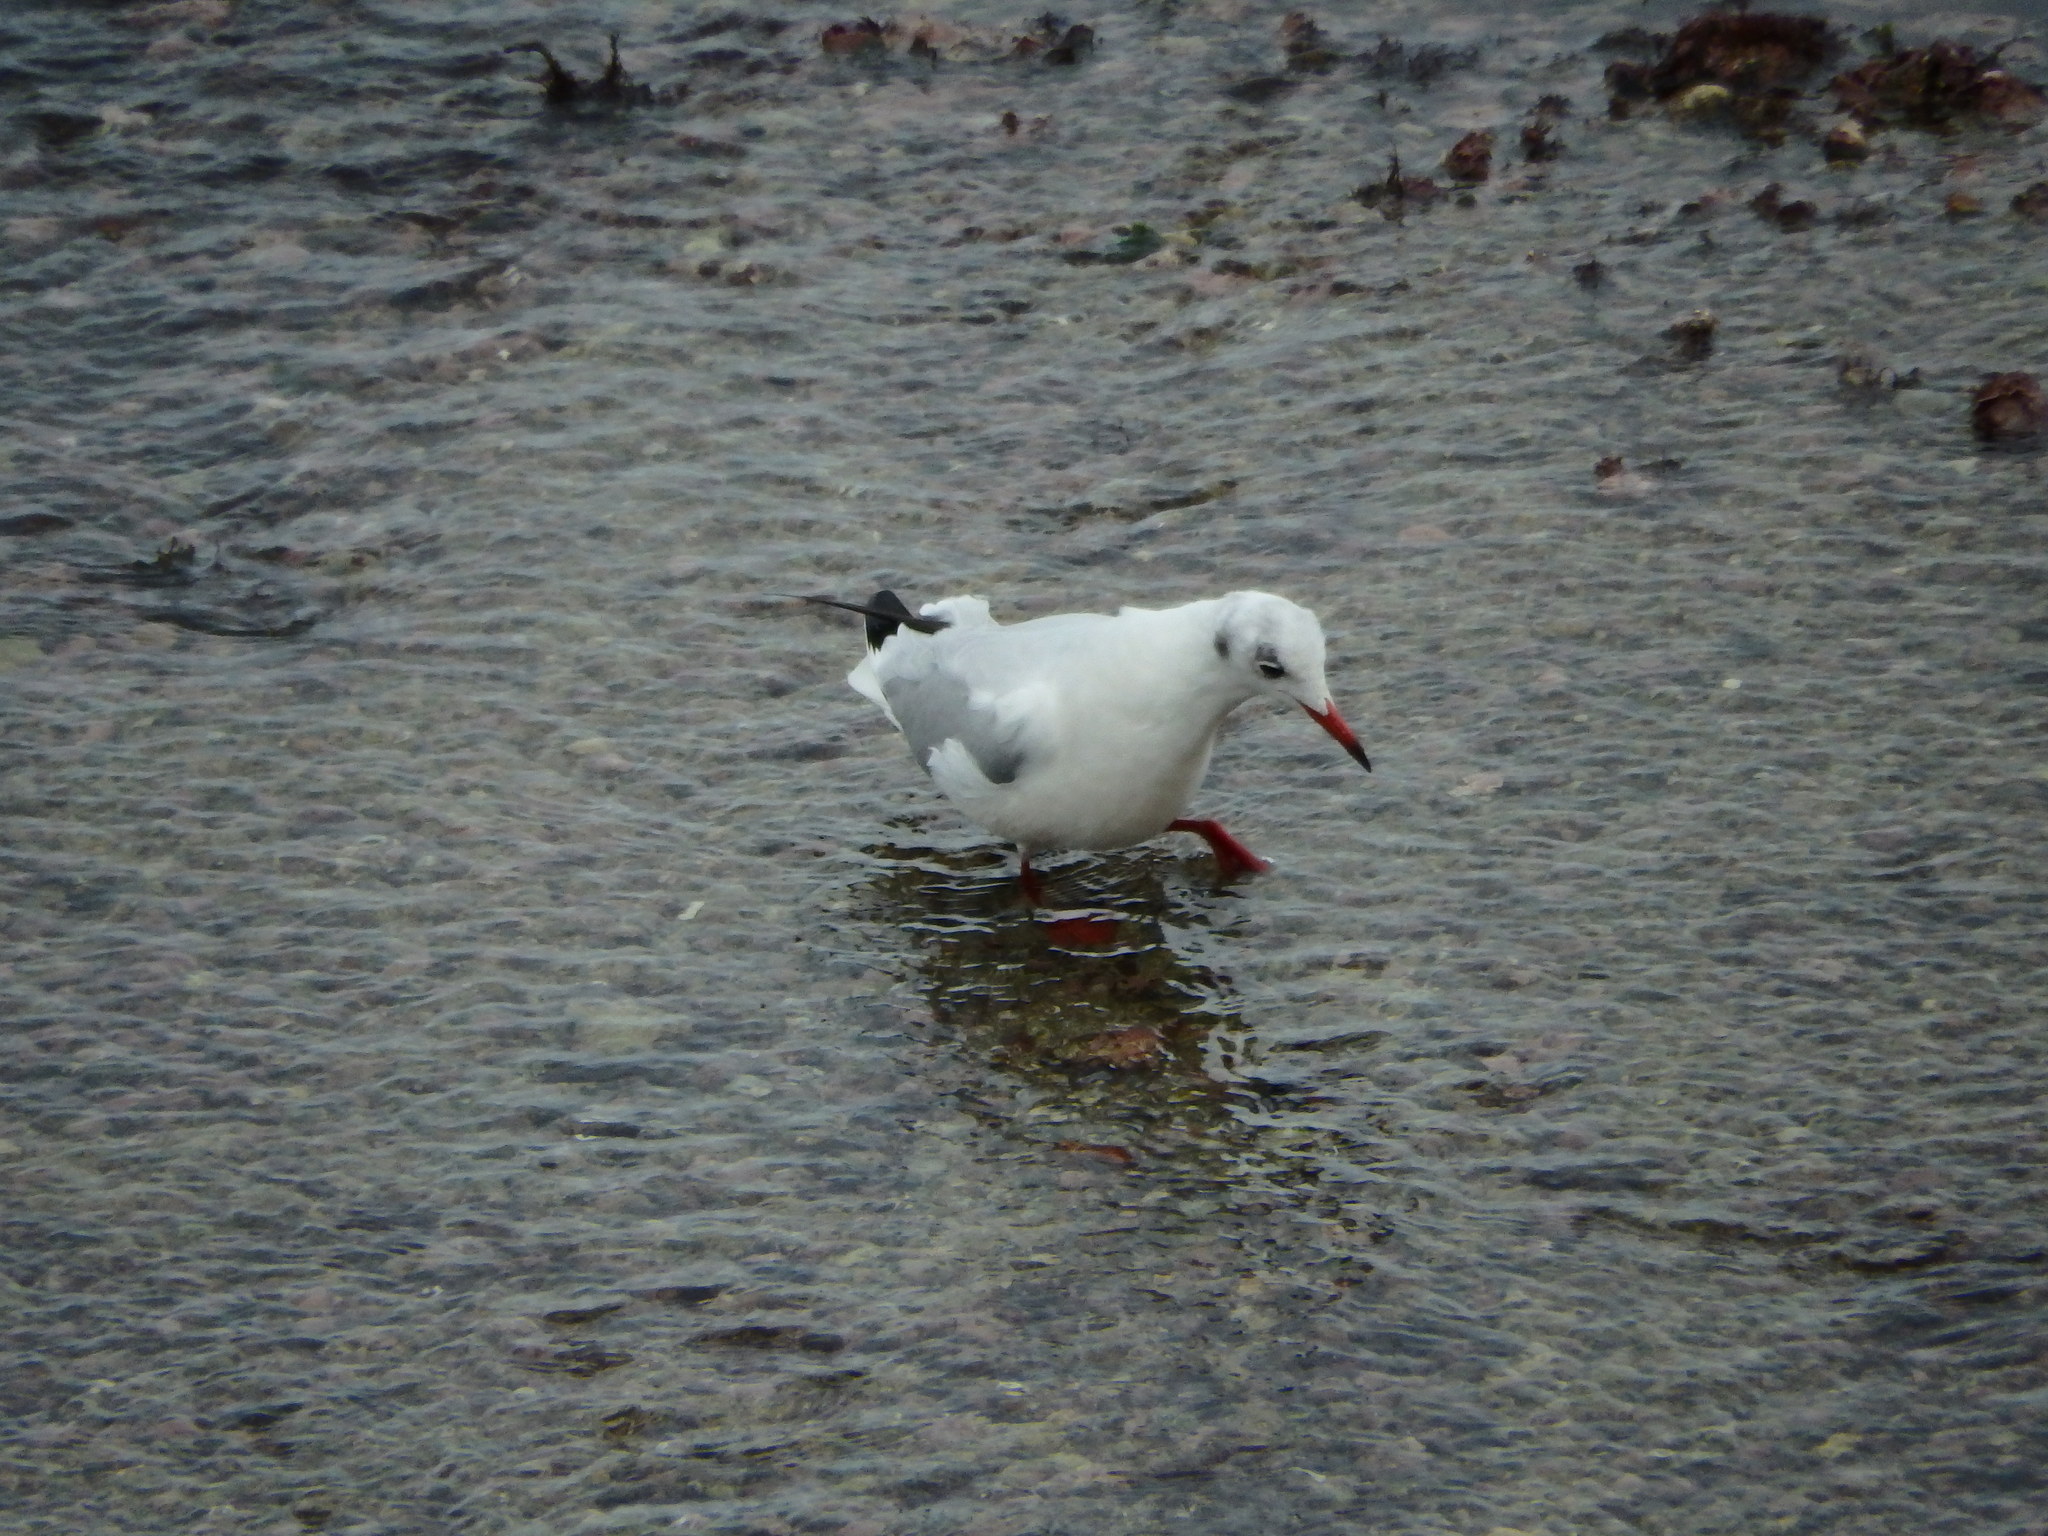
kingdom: Animalia
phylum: Chordata
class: Aves
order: Charadriiformes
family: Laridae
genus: Chroicocephalus
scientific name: Chroicocephalus ridibundus
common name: Black-headed gull
